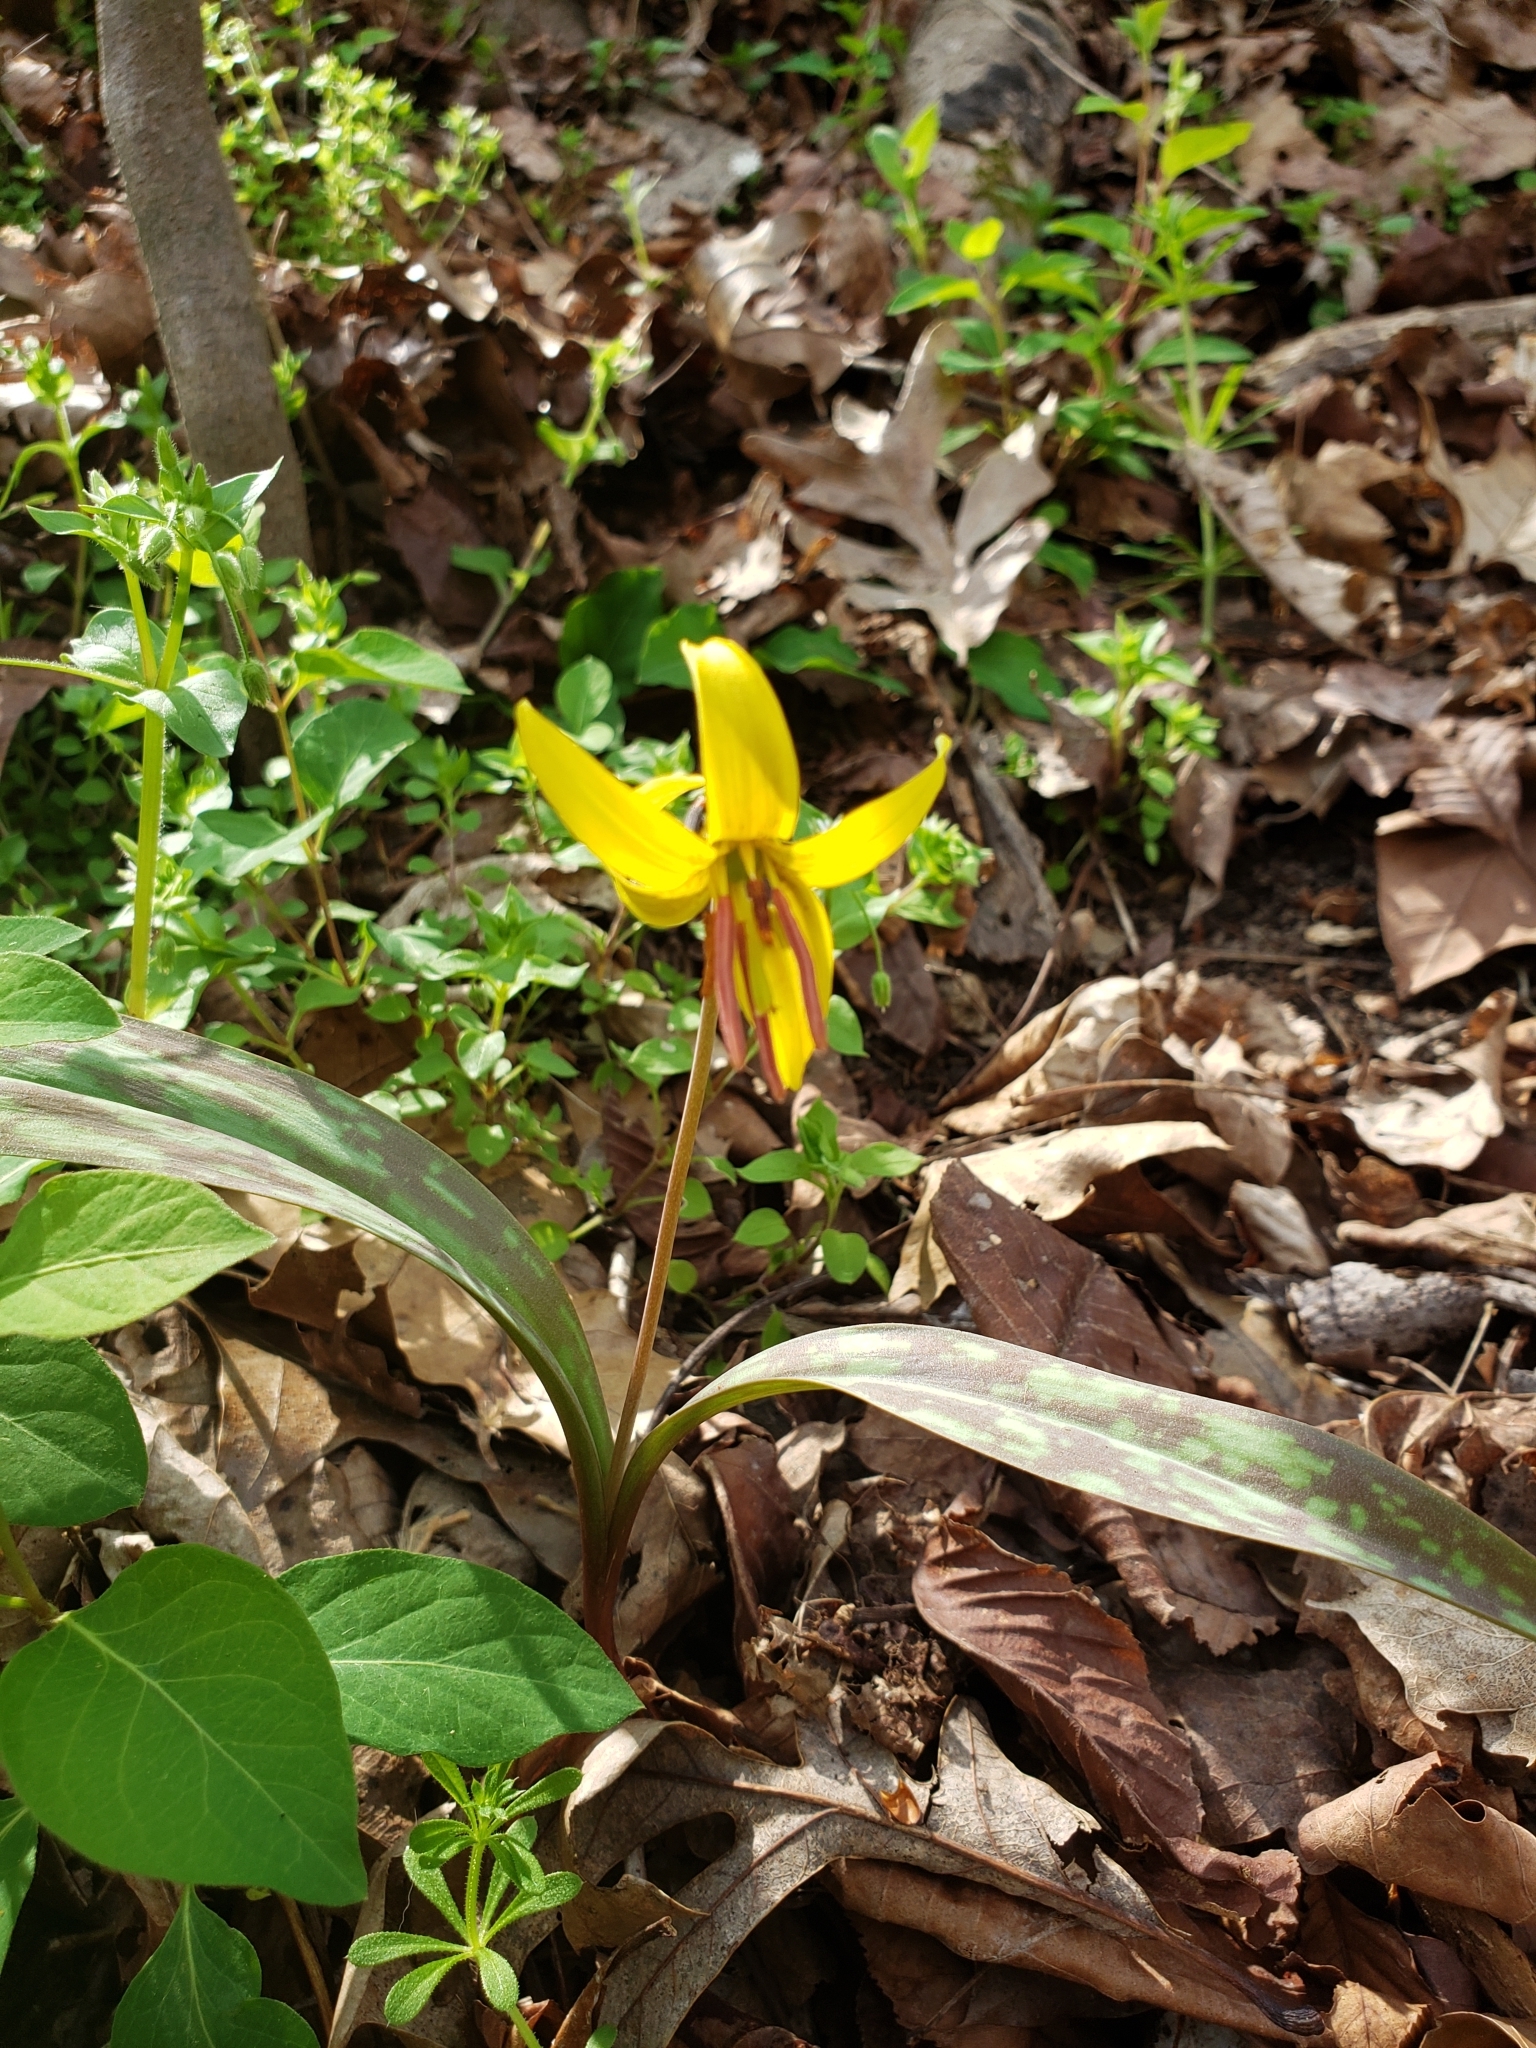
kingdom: Plantae
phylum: Tracheophyta
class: Liliopsida
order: Liliales
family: Liliaceae
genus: Erythronium
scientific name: Erythronium americanum
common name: Yellow adder's-tongue
